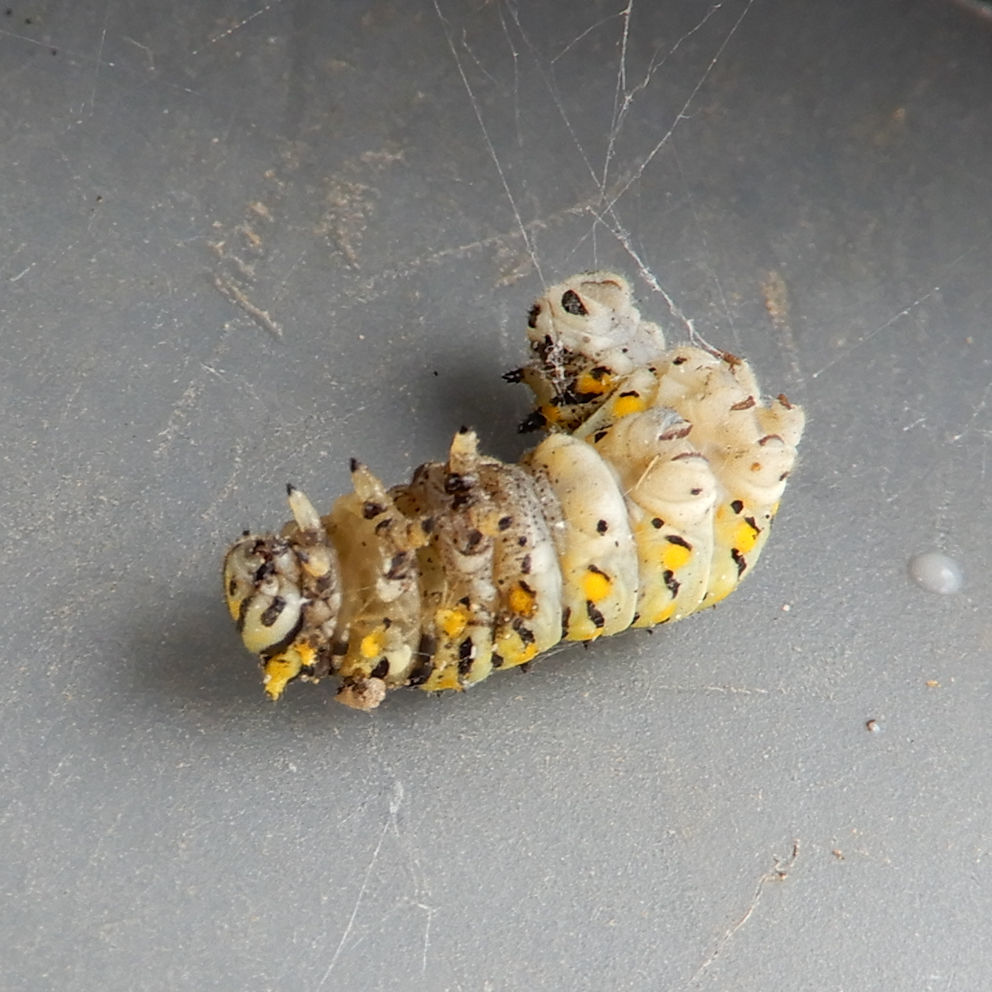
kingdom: Animalia
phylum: Arthropoda
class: Insecta
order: Lepidoptera
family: Papilionidae
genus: Papilio
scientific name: Papilio polyxenes
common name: Black swallowtail
